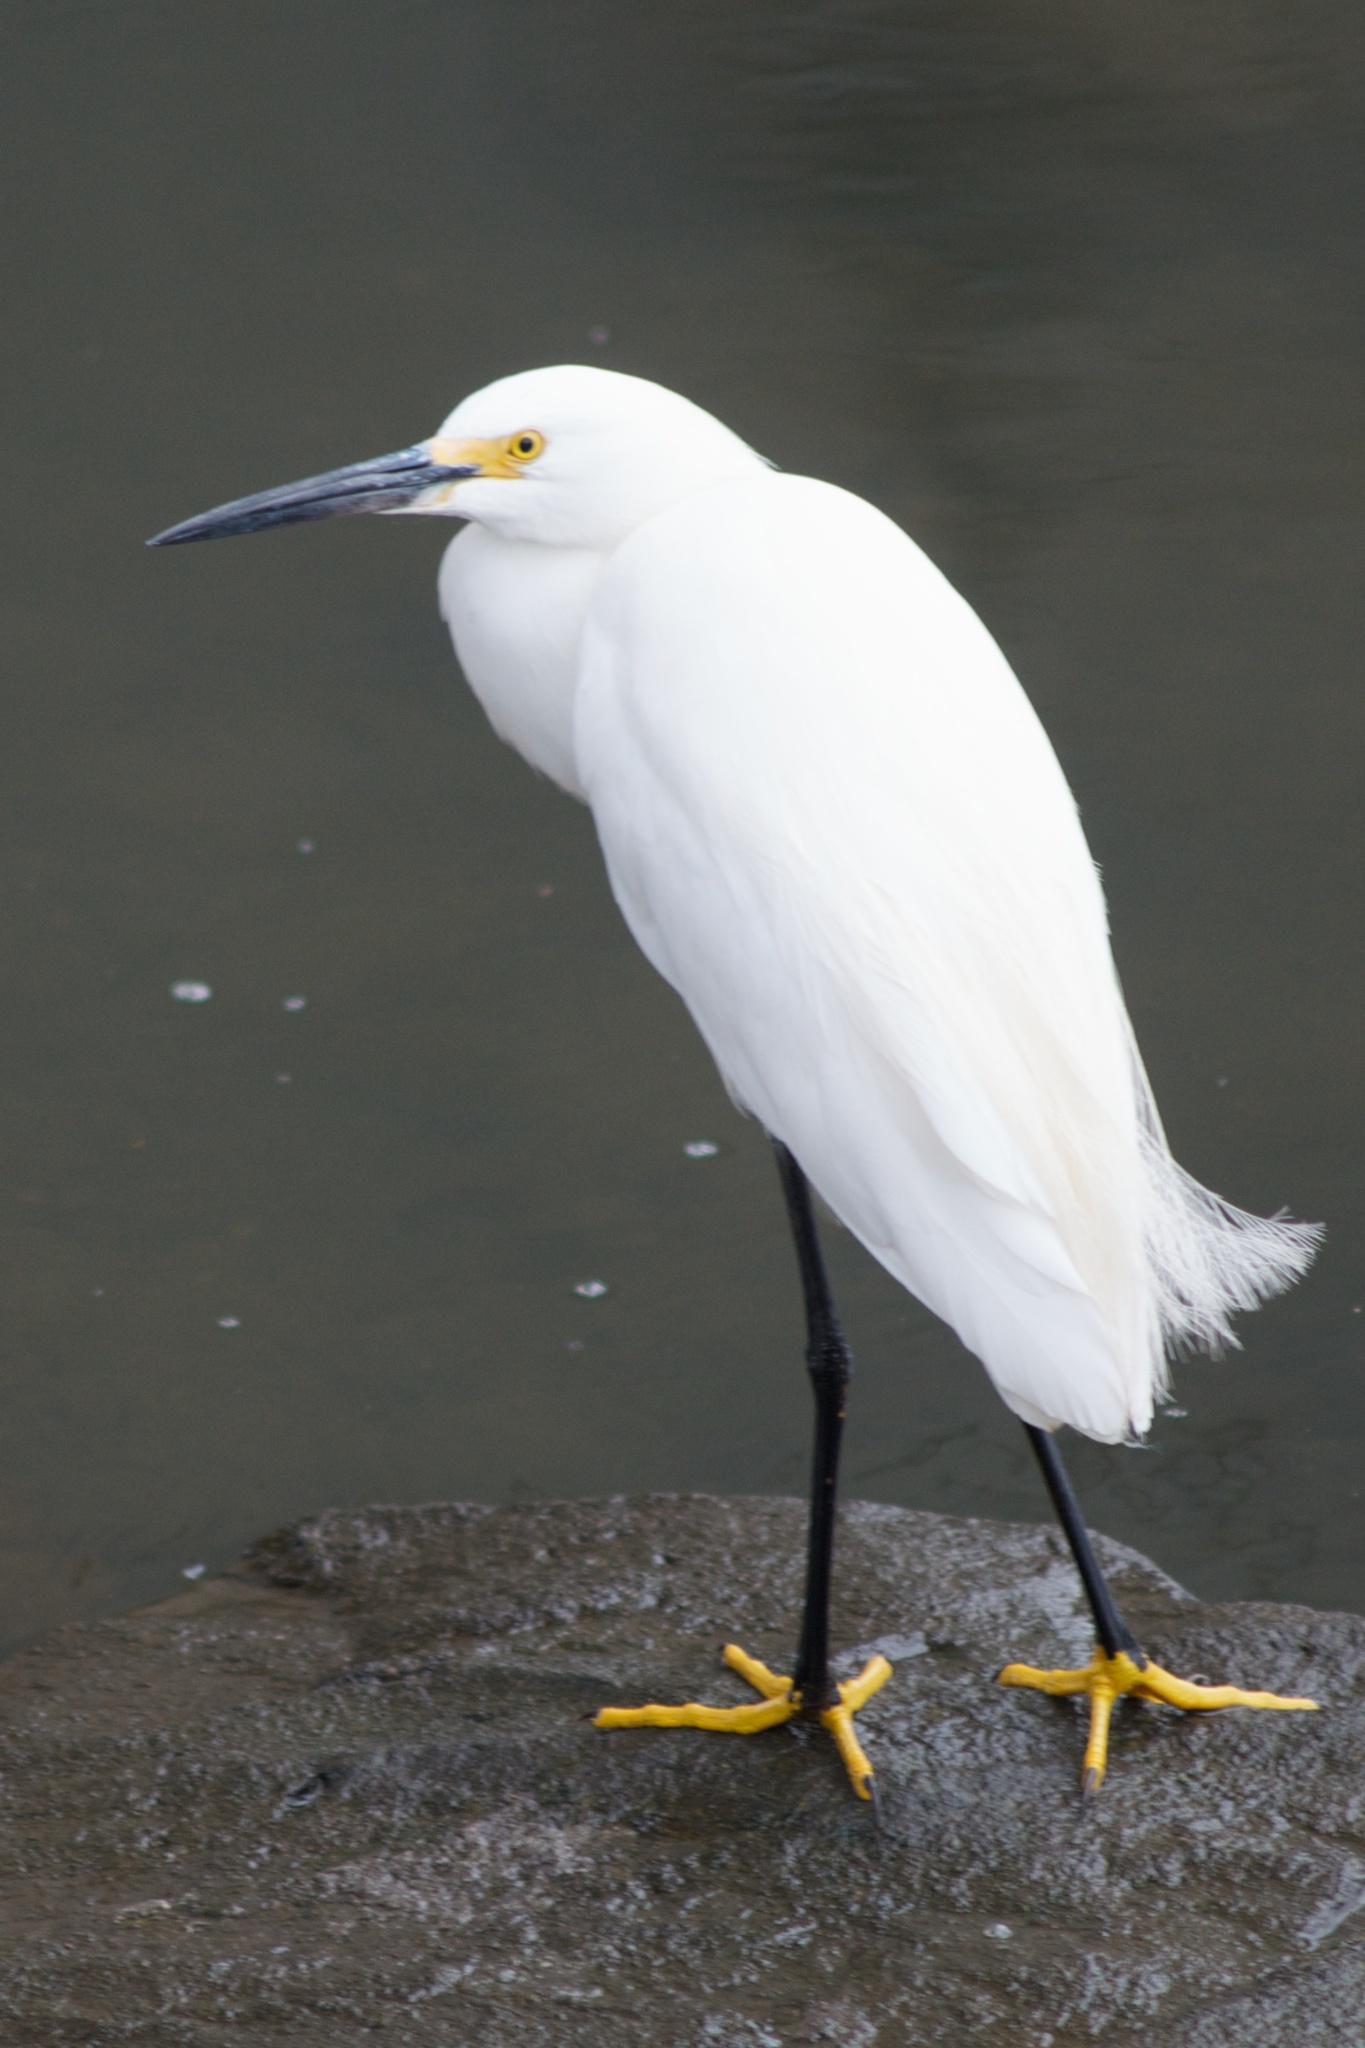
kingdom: Animalia
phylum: Chordata
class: Aves
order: Pelecaniformes
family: Ardeidae
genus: Egretta
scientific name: Egretta thula
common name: Snowy egret
